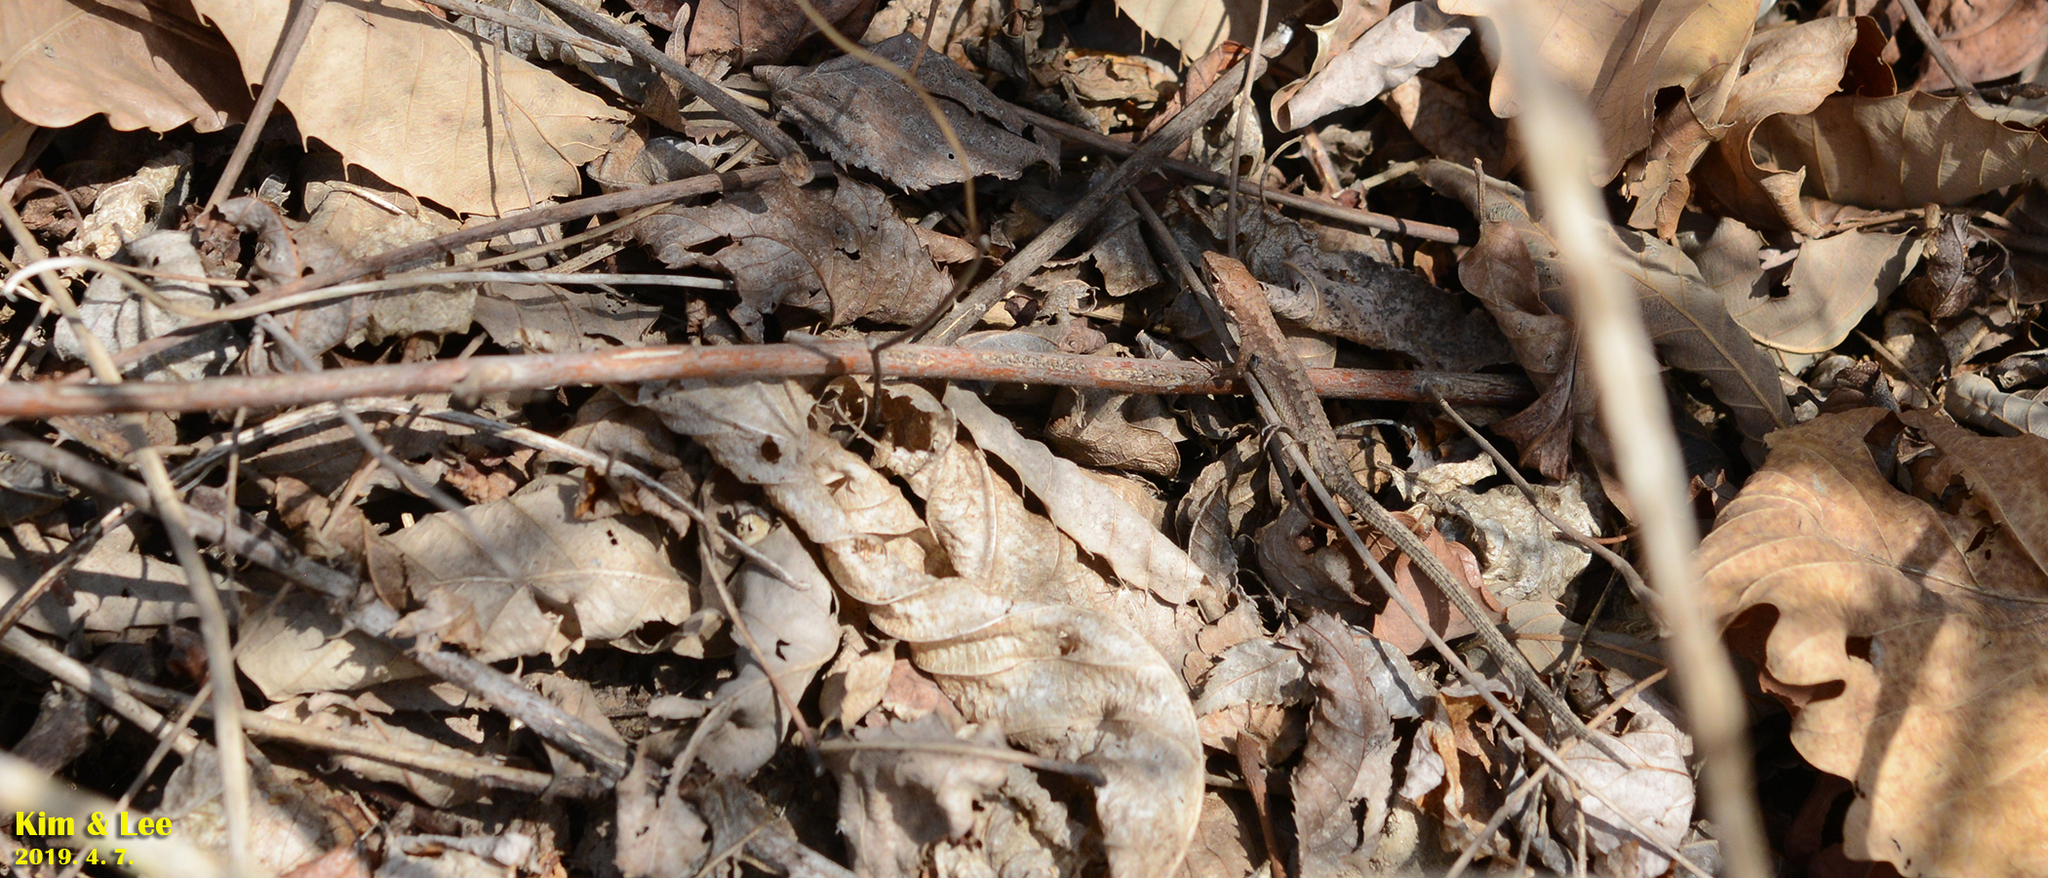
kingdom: Animalia
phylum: Chordata
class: Squamata
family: Lacertidae
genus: Takydromus
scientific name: Takydromus amurensis
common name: Amur grass lizard
